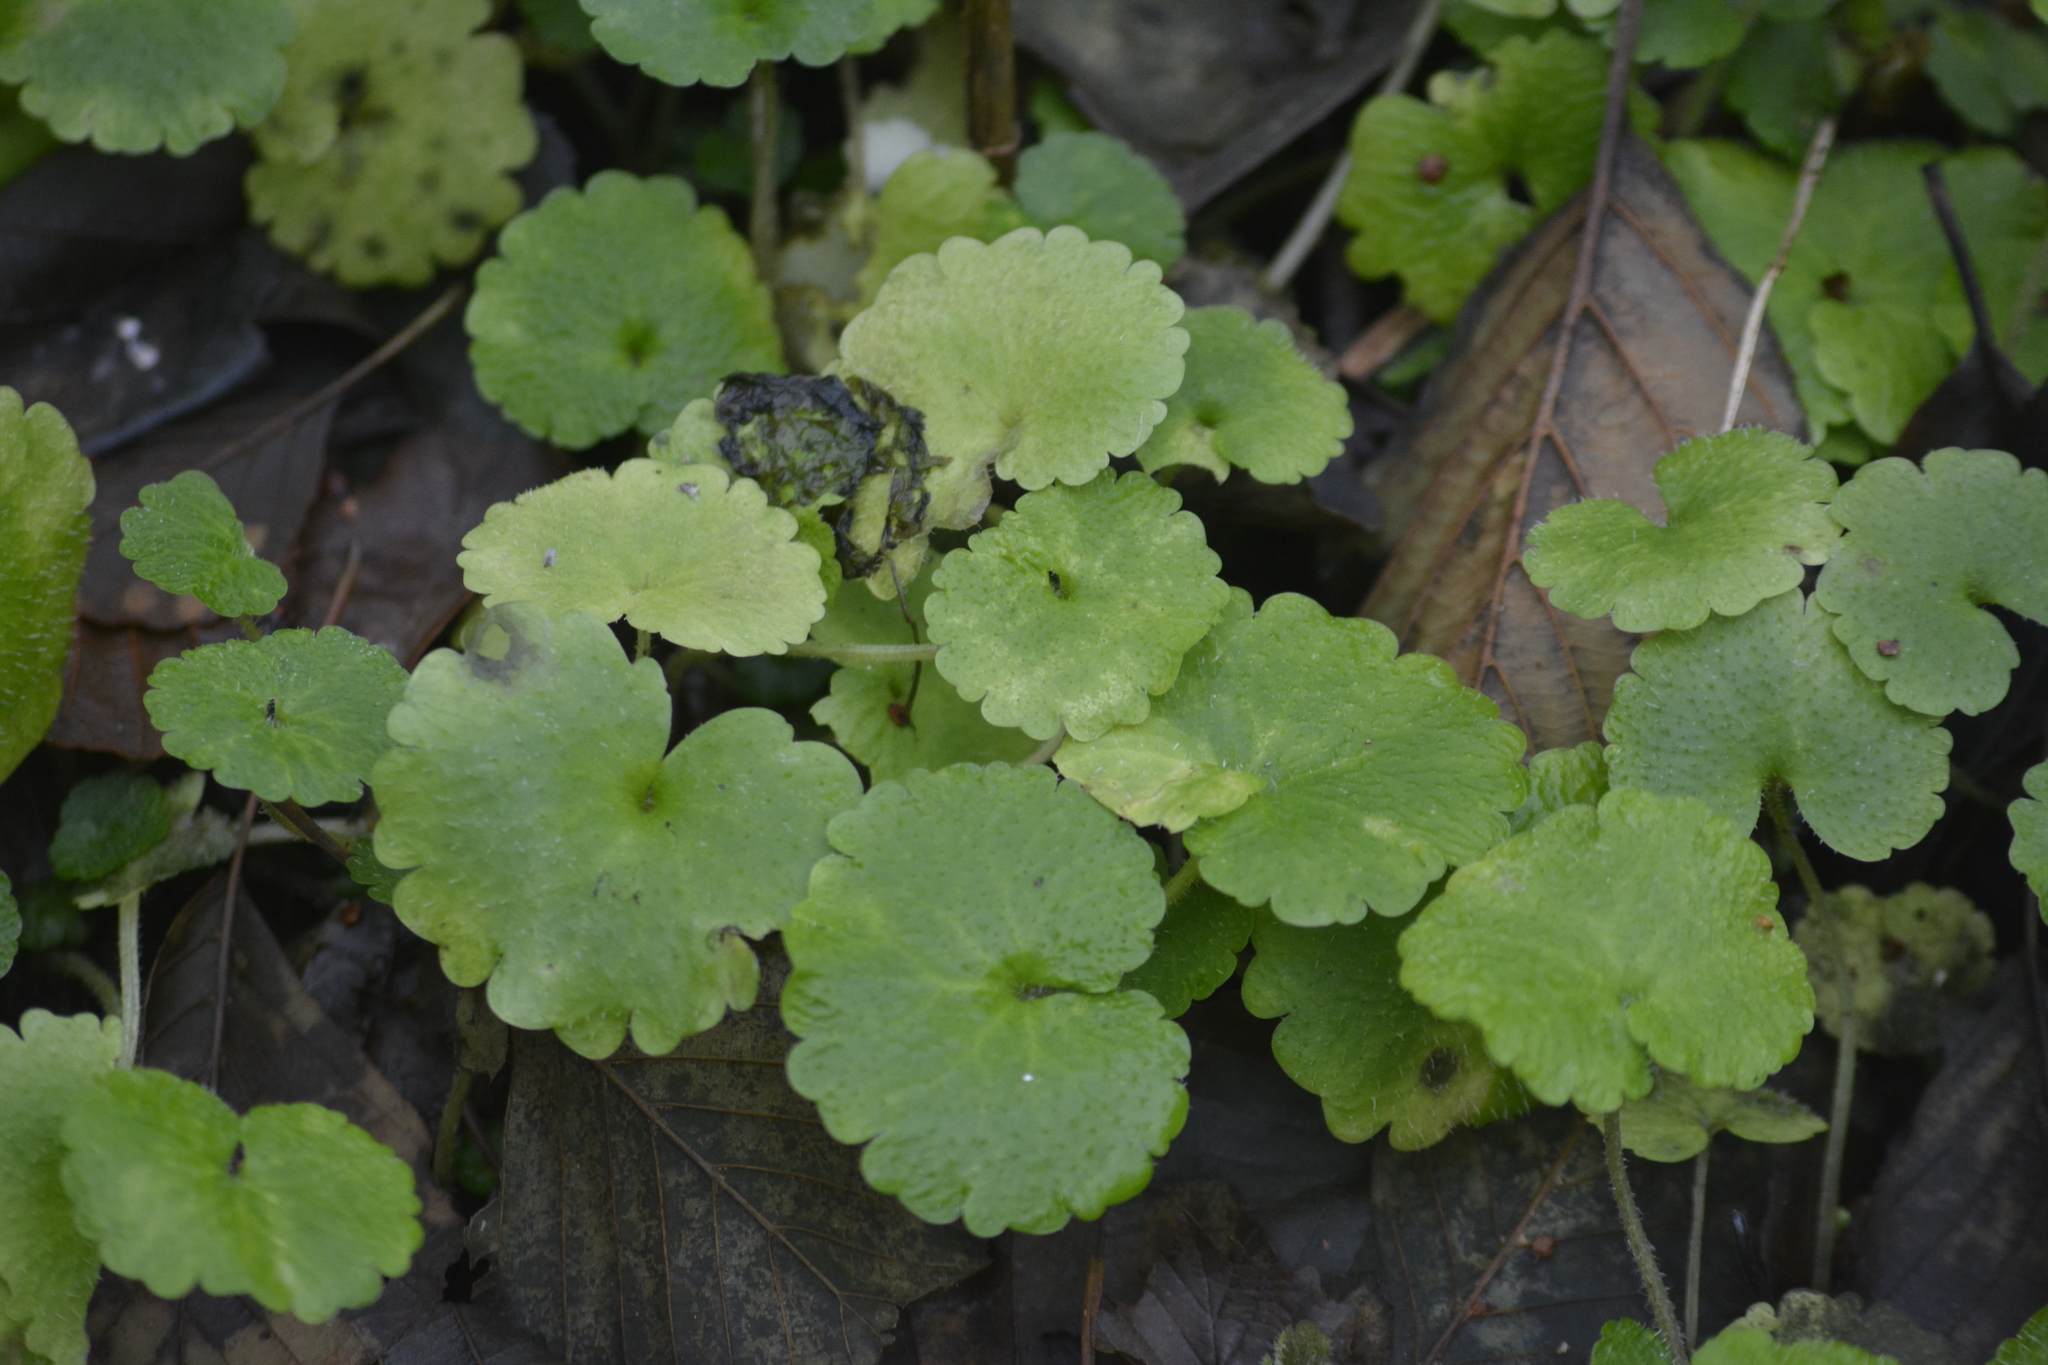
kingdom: Plantae
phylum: Tracheophyta
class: Magnoliopsida
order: Saxifragales
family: Saxifragaceae
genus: Chrysosplenium
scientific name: Chrysosplenium alternifolium
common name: Alternate-leaved golden-saxifrage
